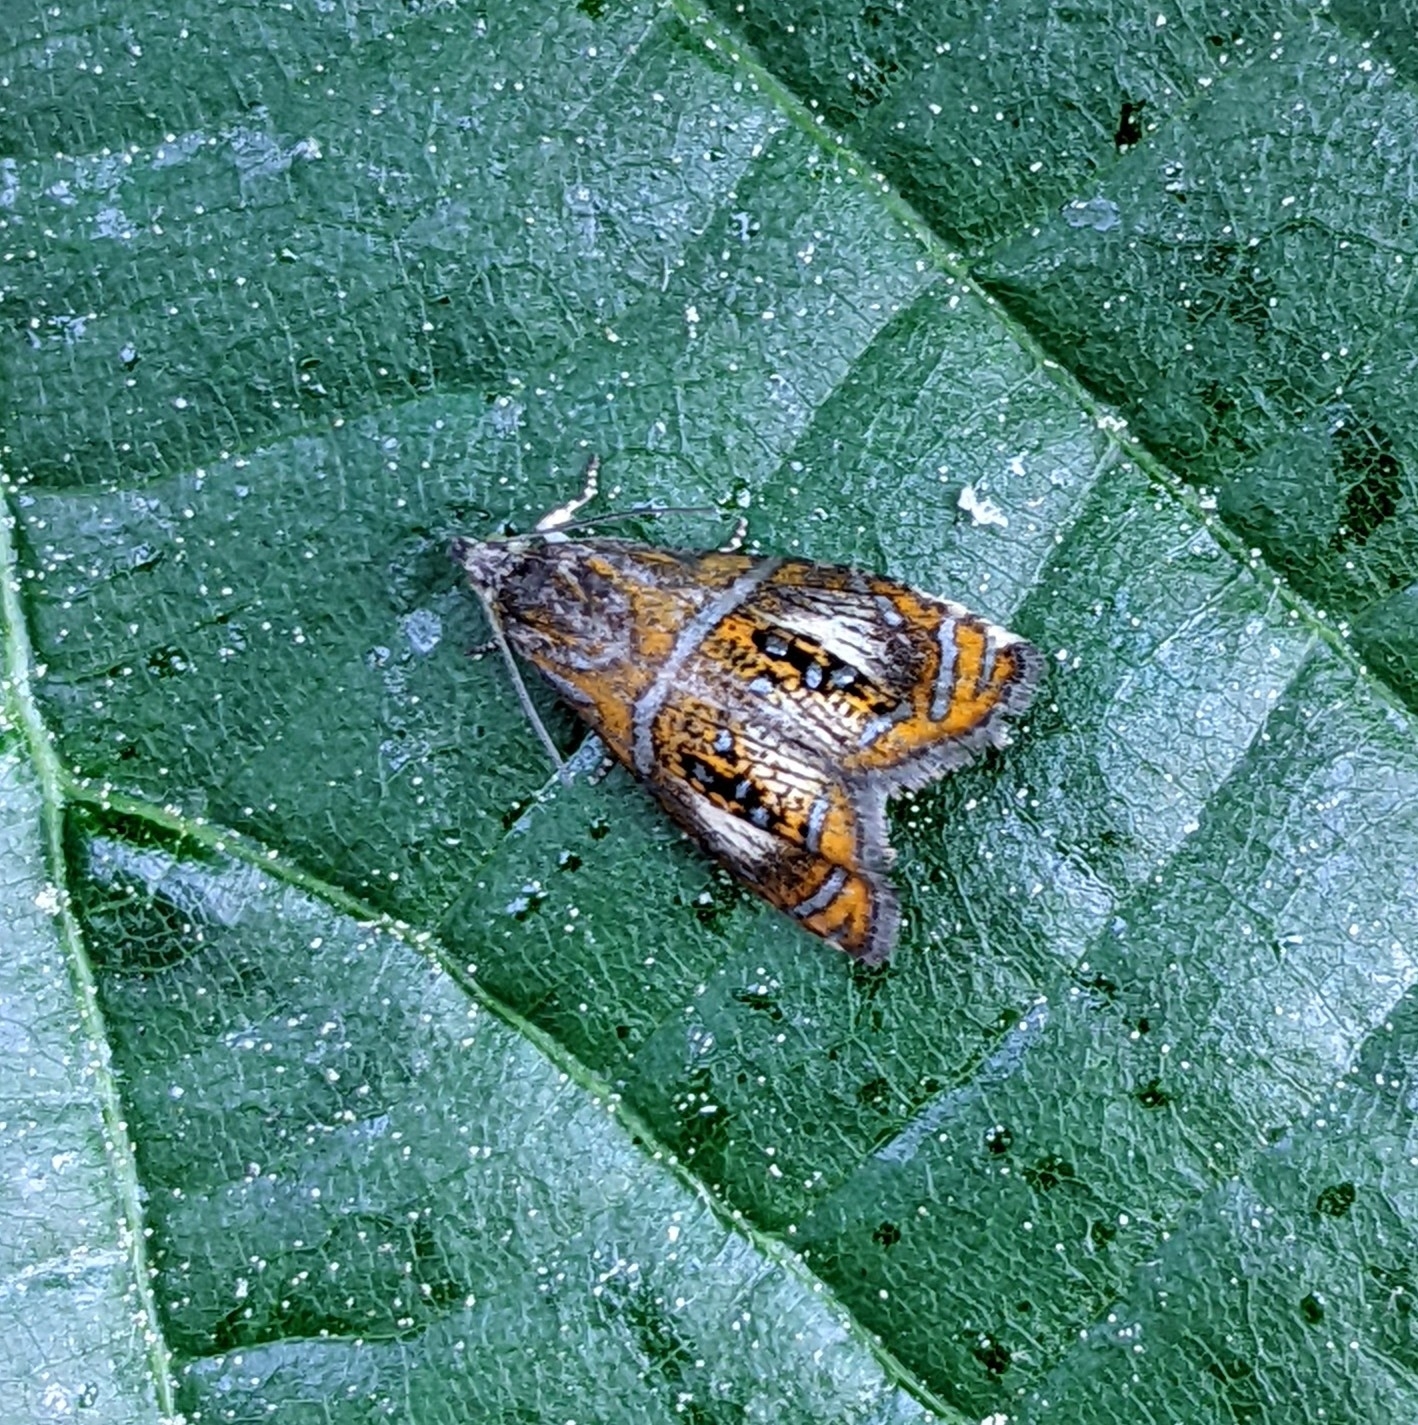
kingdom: Animalia
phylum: Arthropoda
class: Insecta
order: Lepidoptera
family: Tortricidae
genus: Olethreutes
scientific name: Olethreutes arcuella
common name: Arched marble
